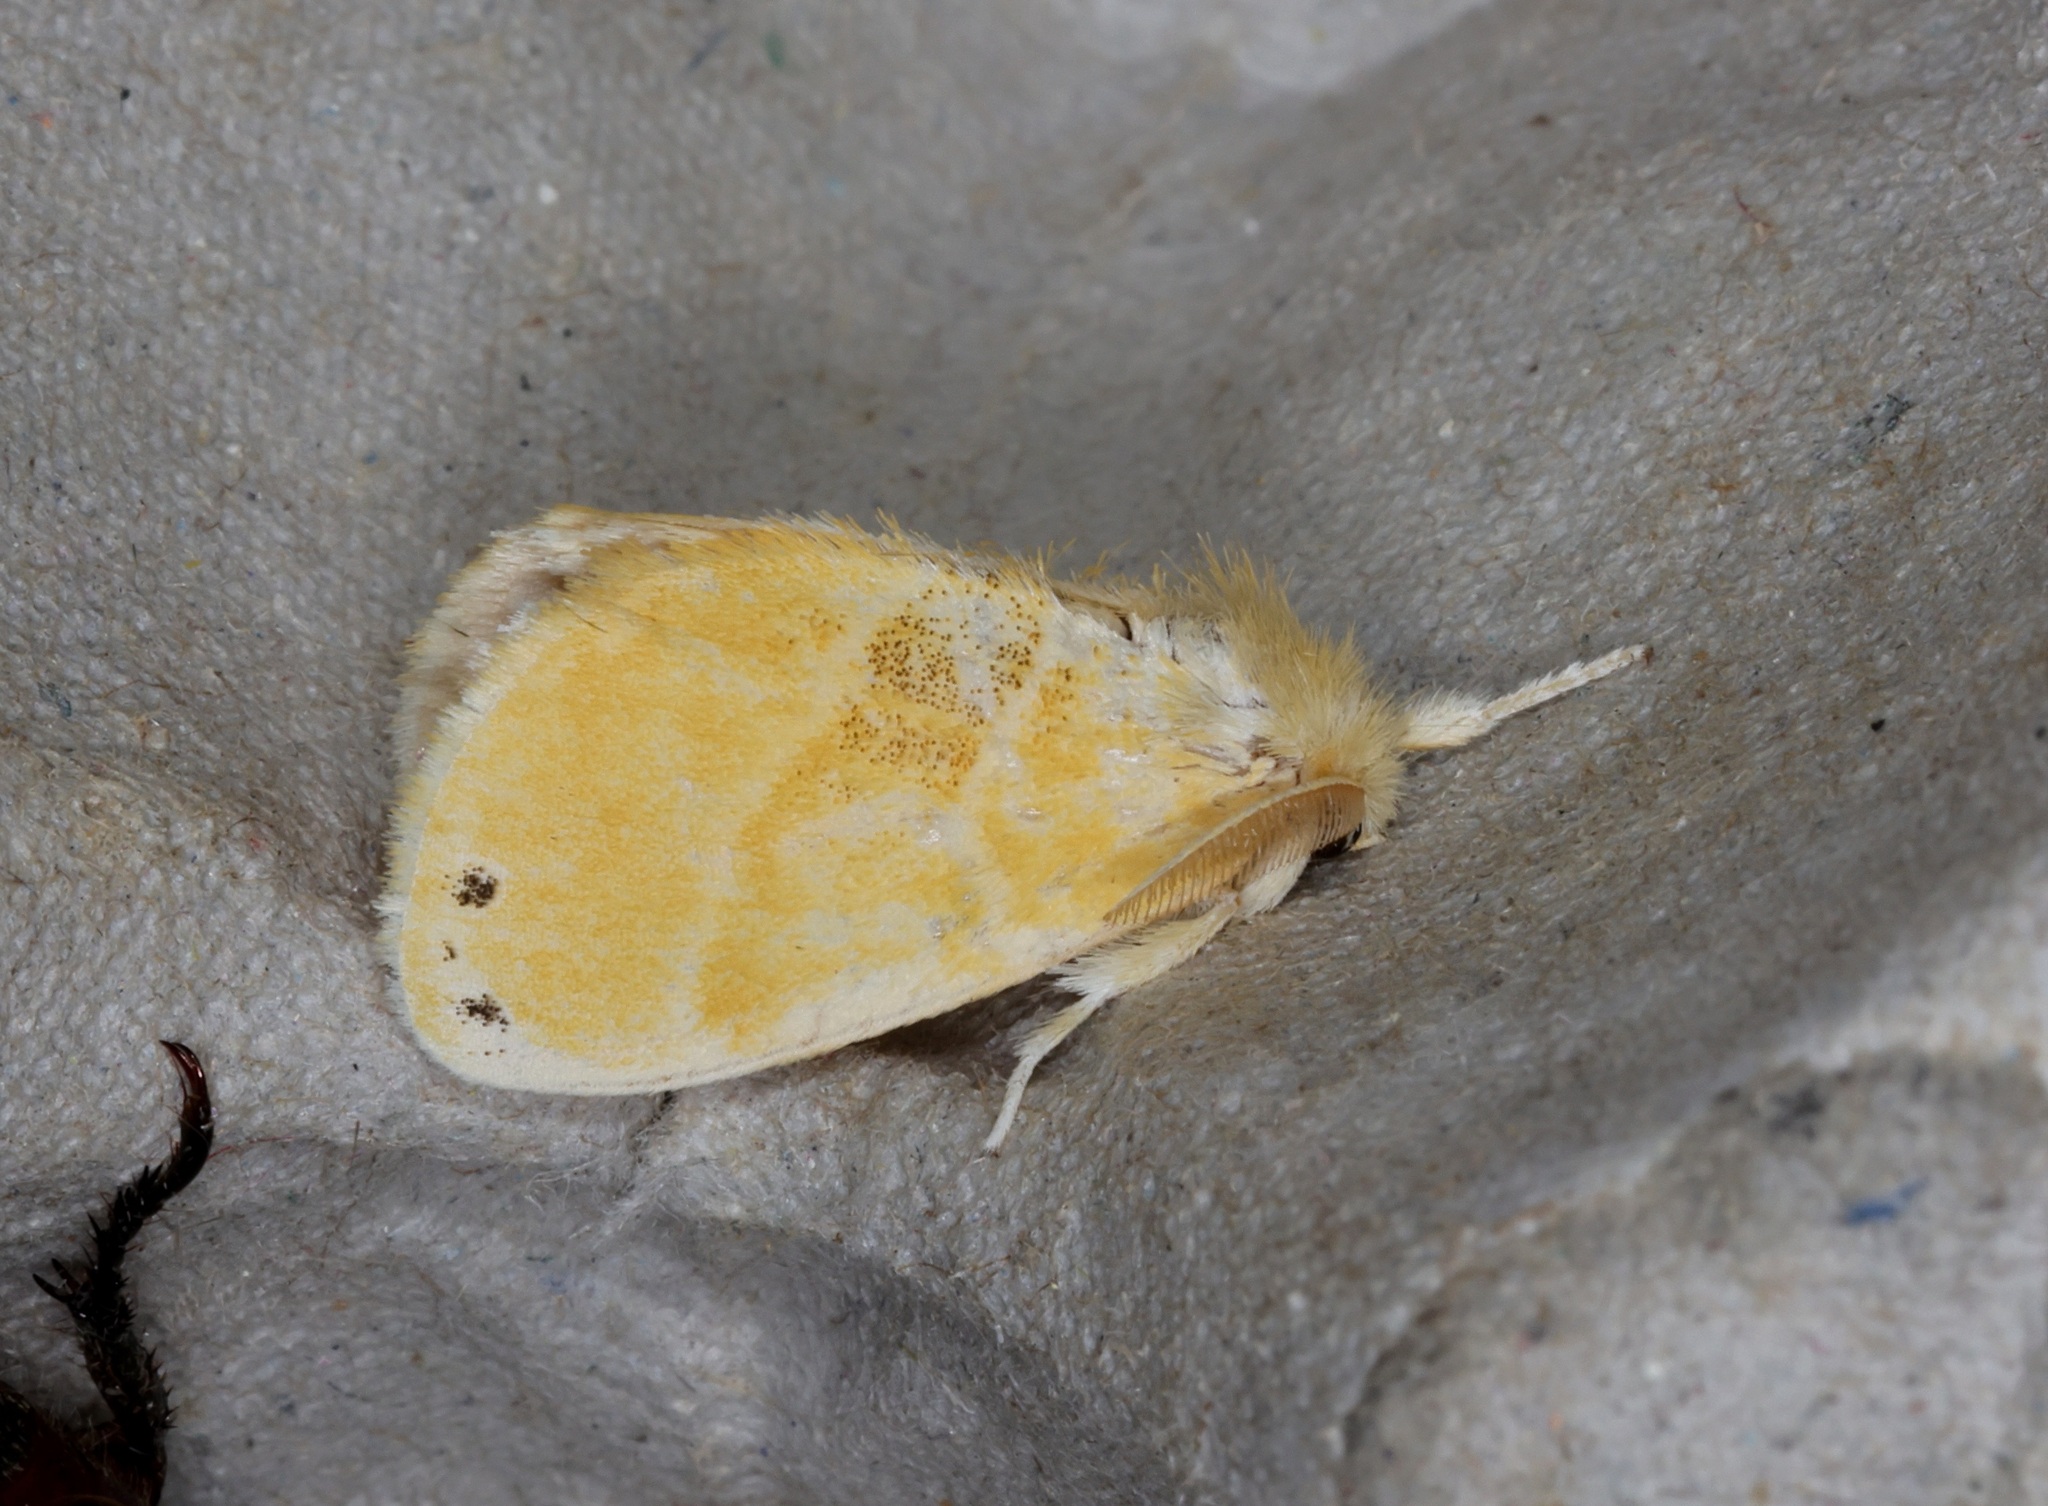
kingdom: Animalia
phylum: Arthropoda
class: Insecta
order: Lepidoptera
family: Erebidae
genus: Artaxa
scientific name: Artaxa
